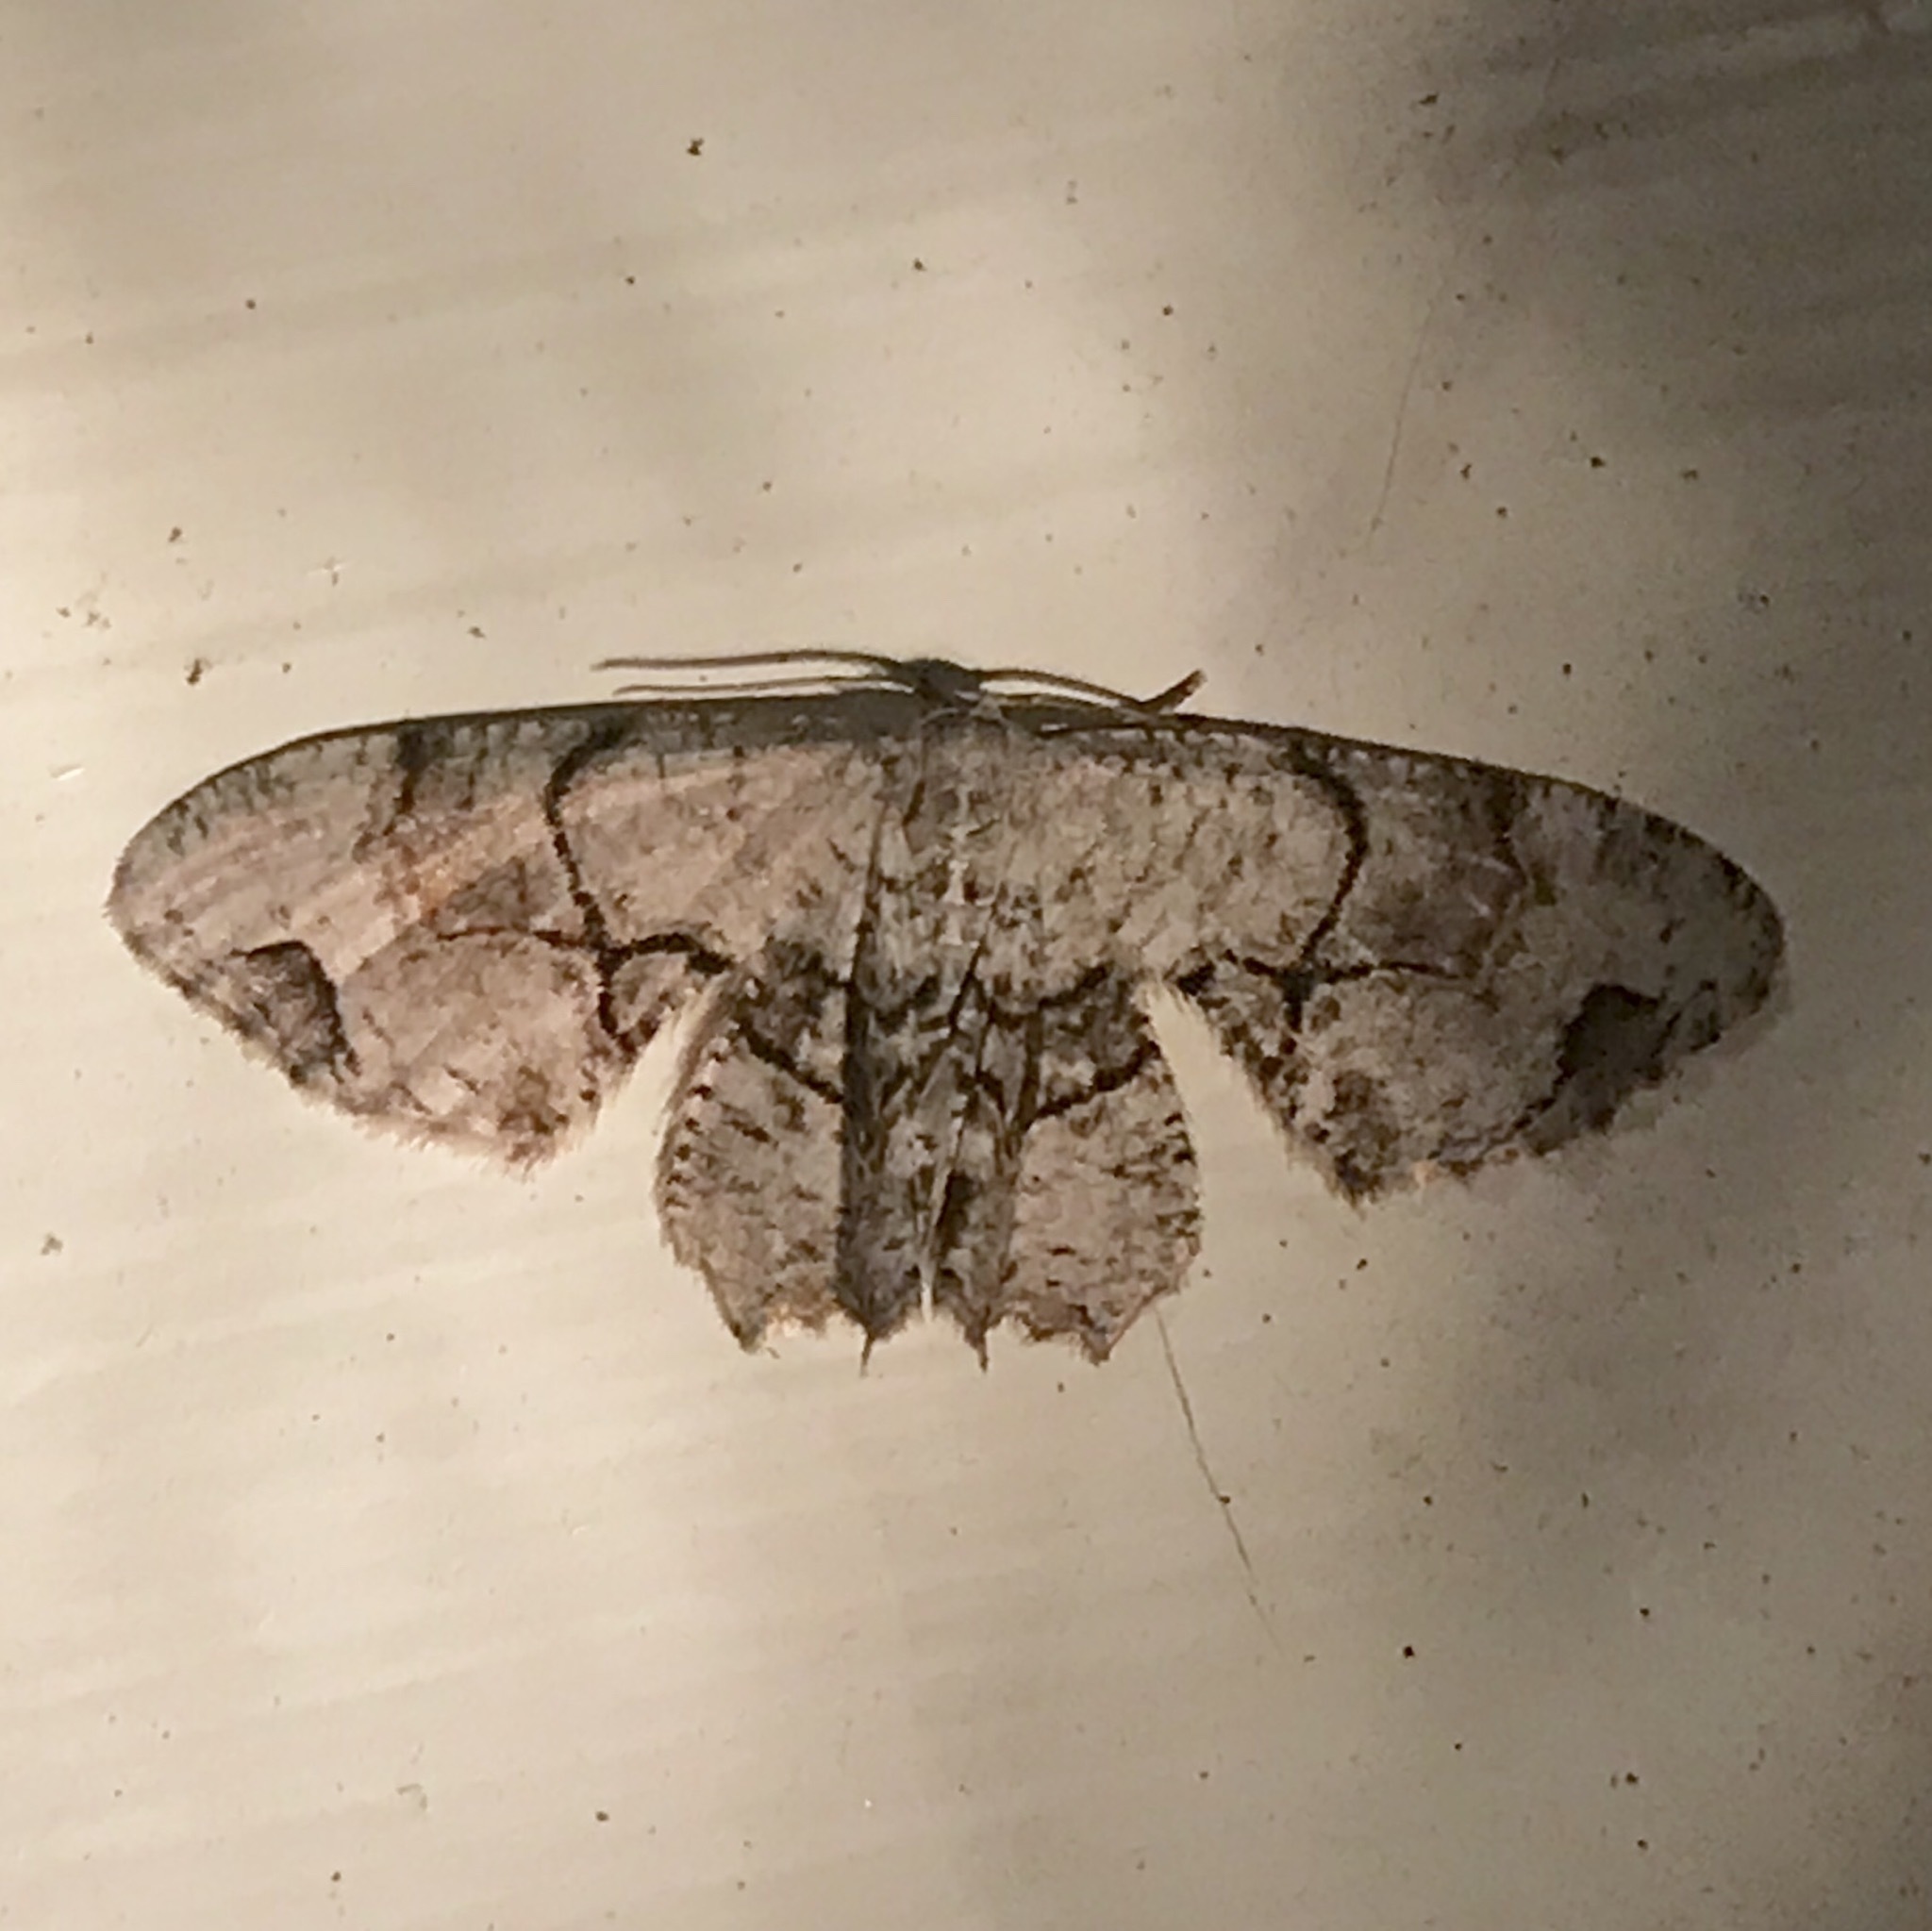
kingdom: Animalia
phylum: Arthropoda
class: Insecta
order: Lepidoptera
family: Uraniidae
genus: Epiplema
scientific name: Epiplema Callizzia amorata
